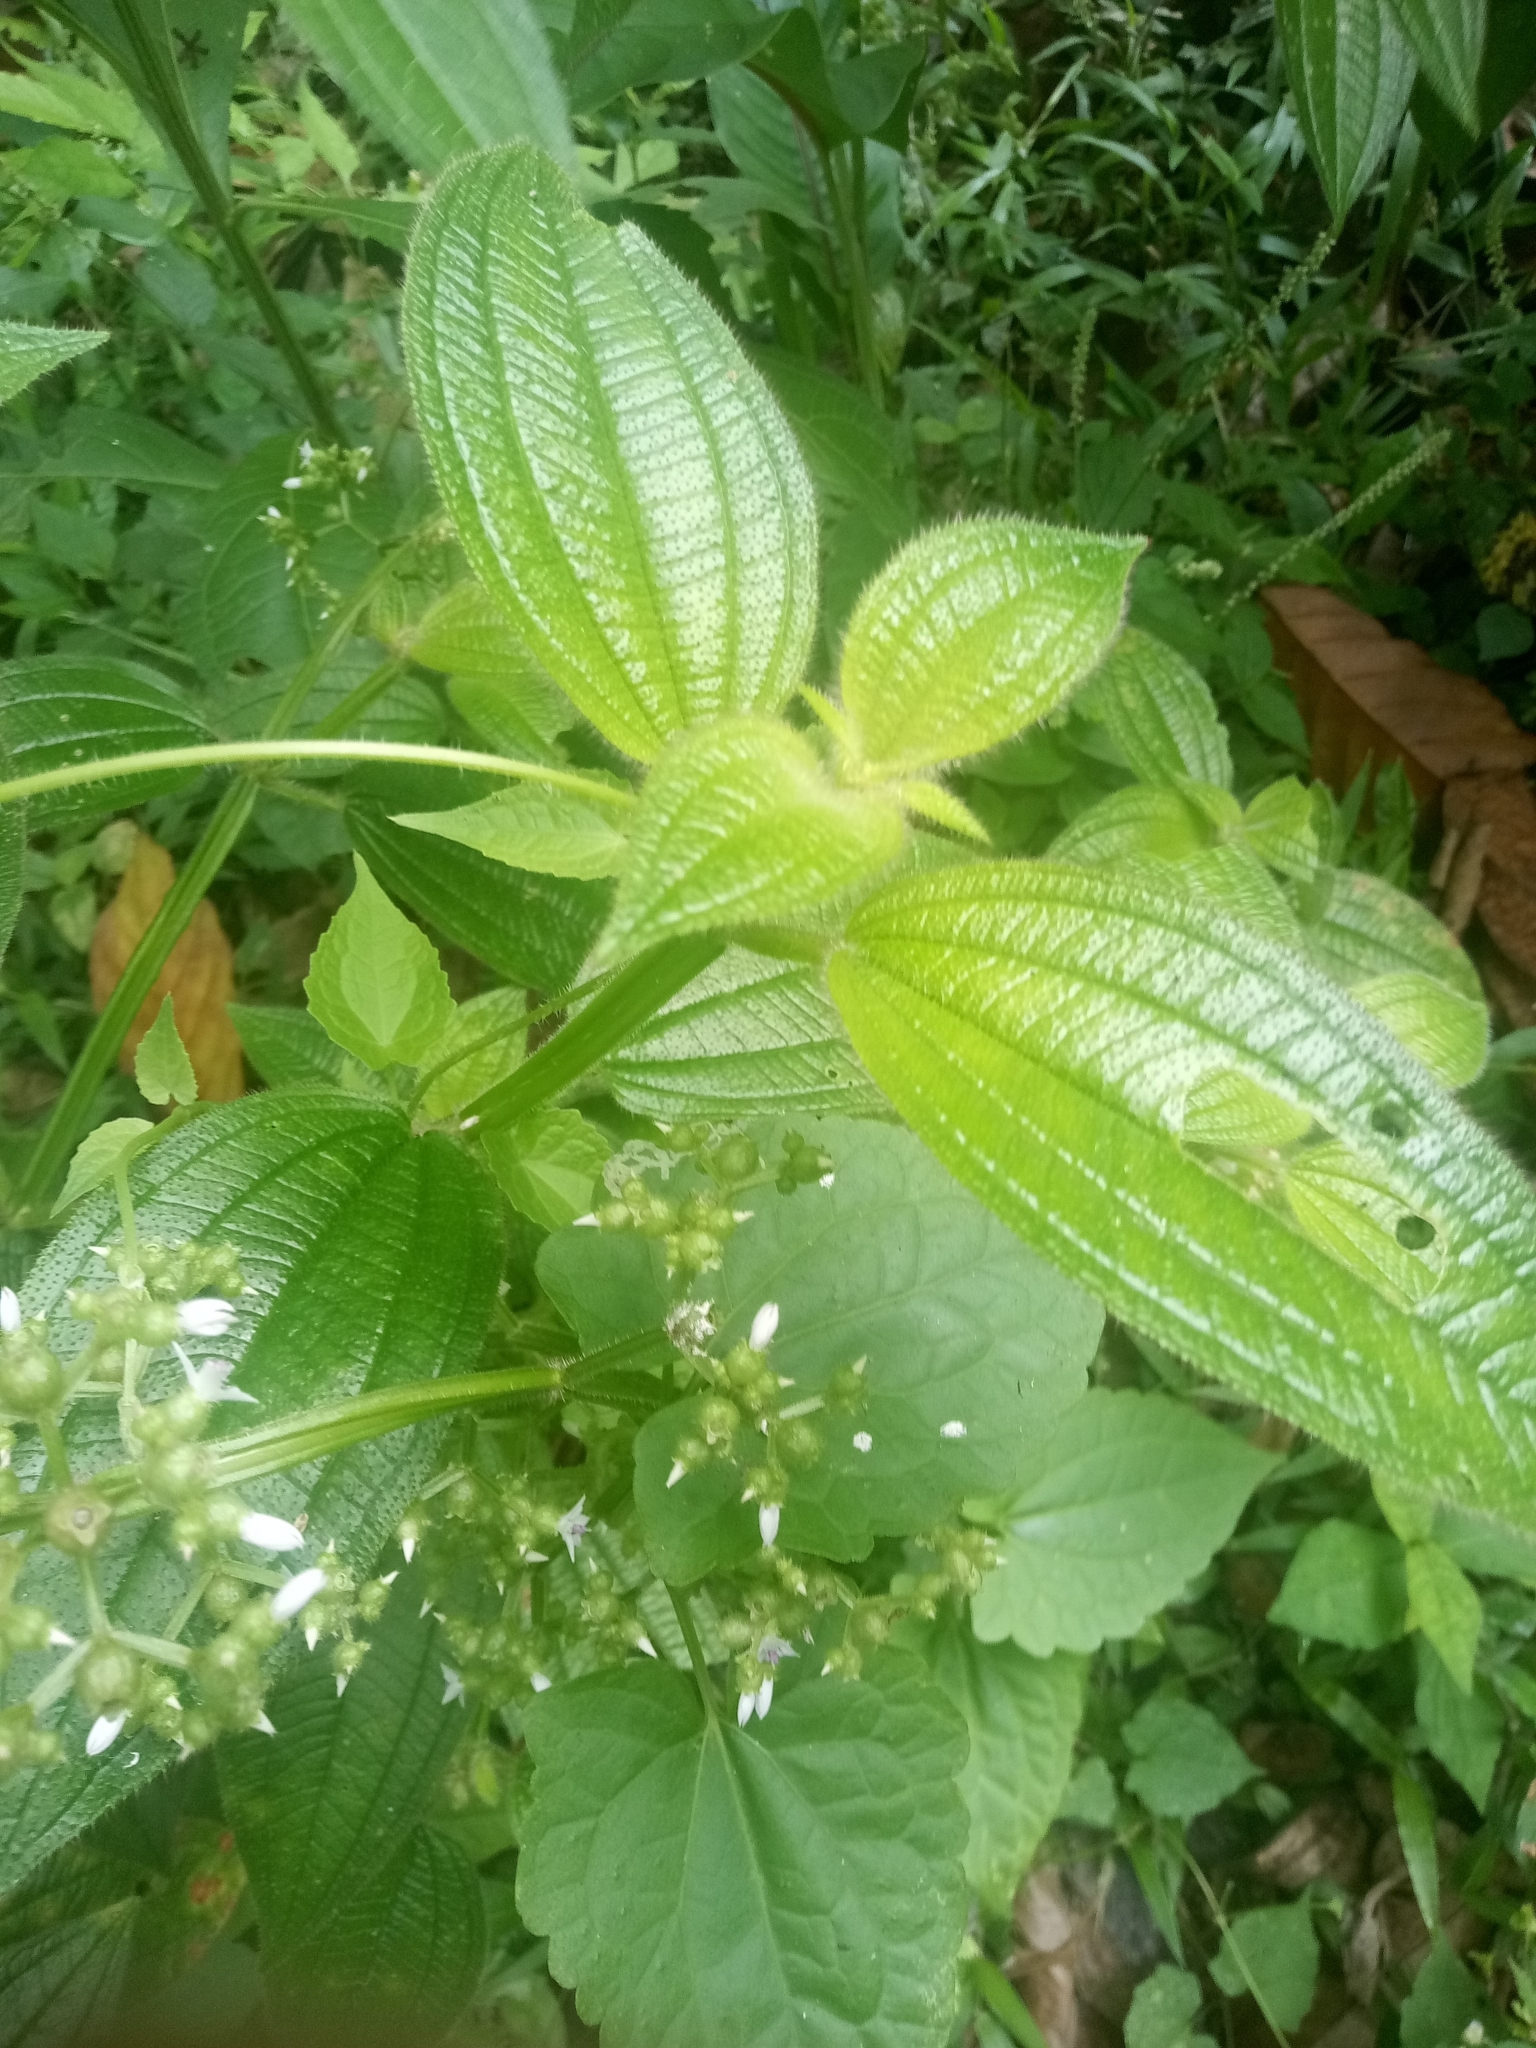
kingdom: Plantae
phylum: Tracheophyta
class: Magnoliopsida
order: Myrtales
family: Melastomataceae
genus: Aciotis
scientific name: Aciotis indecora
